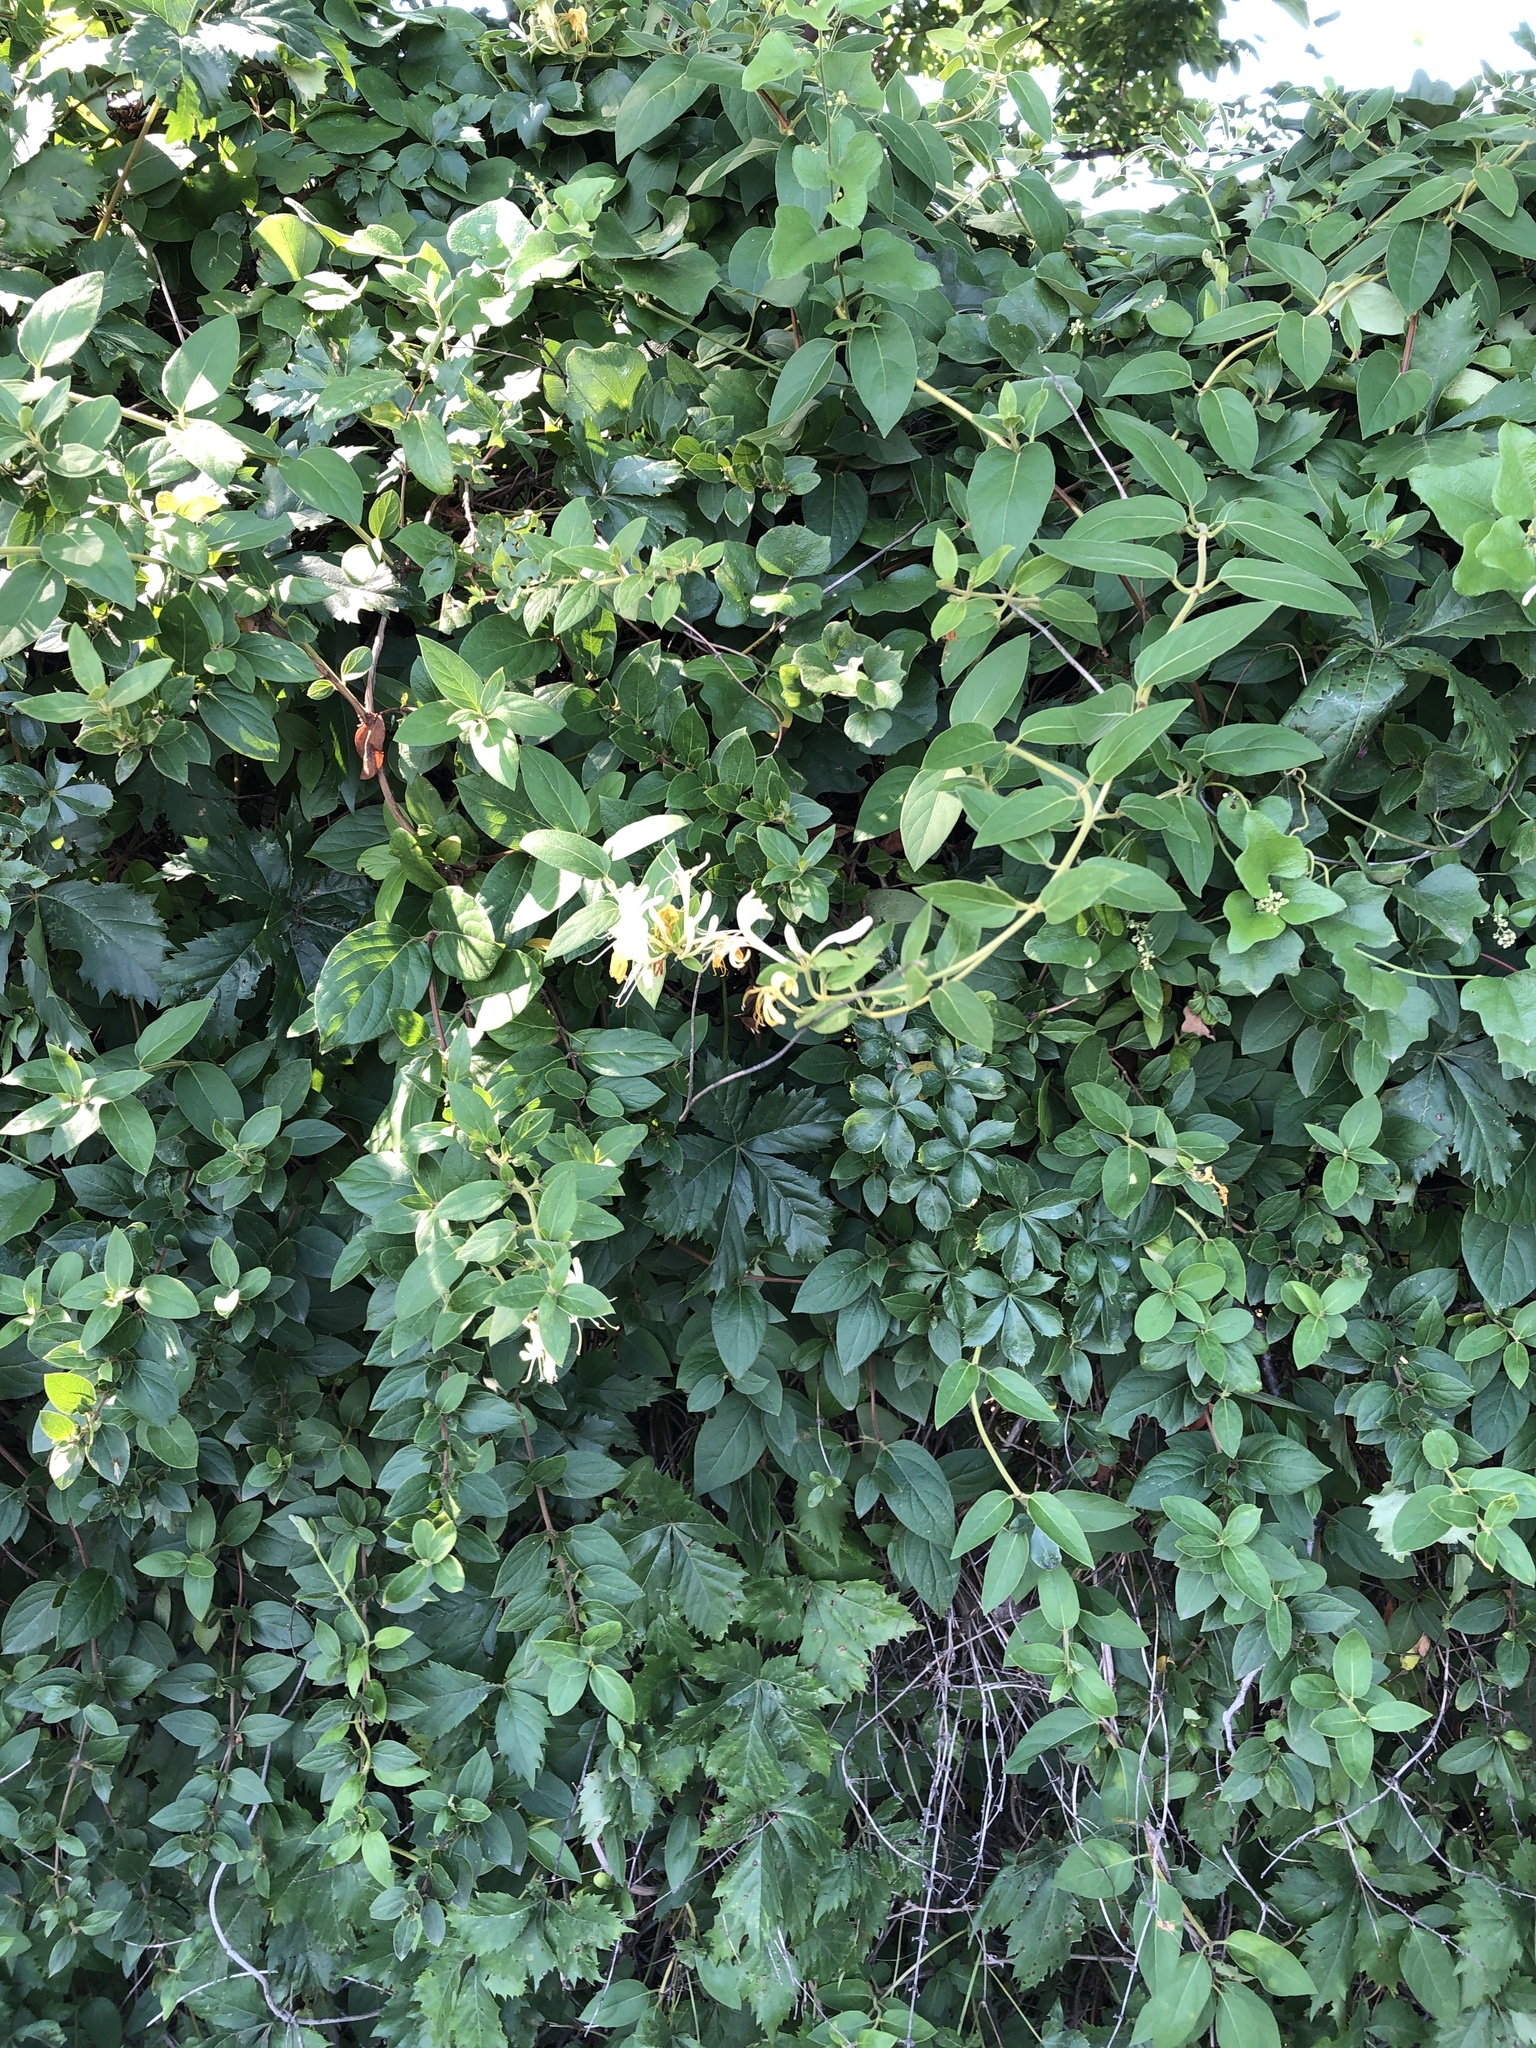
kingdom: Plantae
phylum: Tracheophyta
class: Magnoliopsida
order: Dipsacales
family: Caprifoliaceae
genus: Lonicera
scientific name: Lonicera japonica
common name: Japanese honeysuckle
